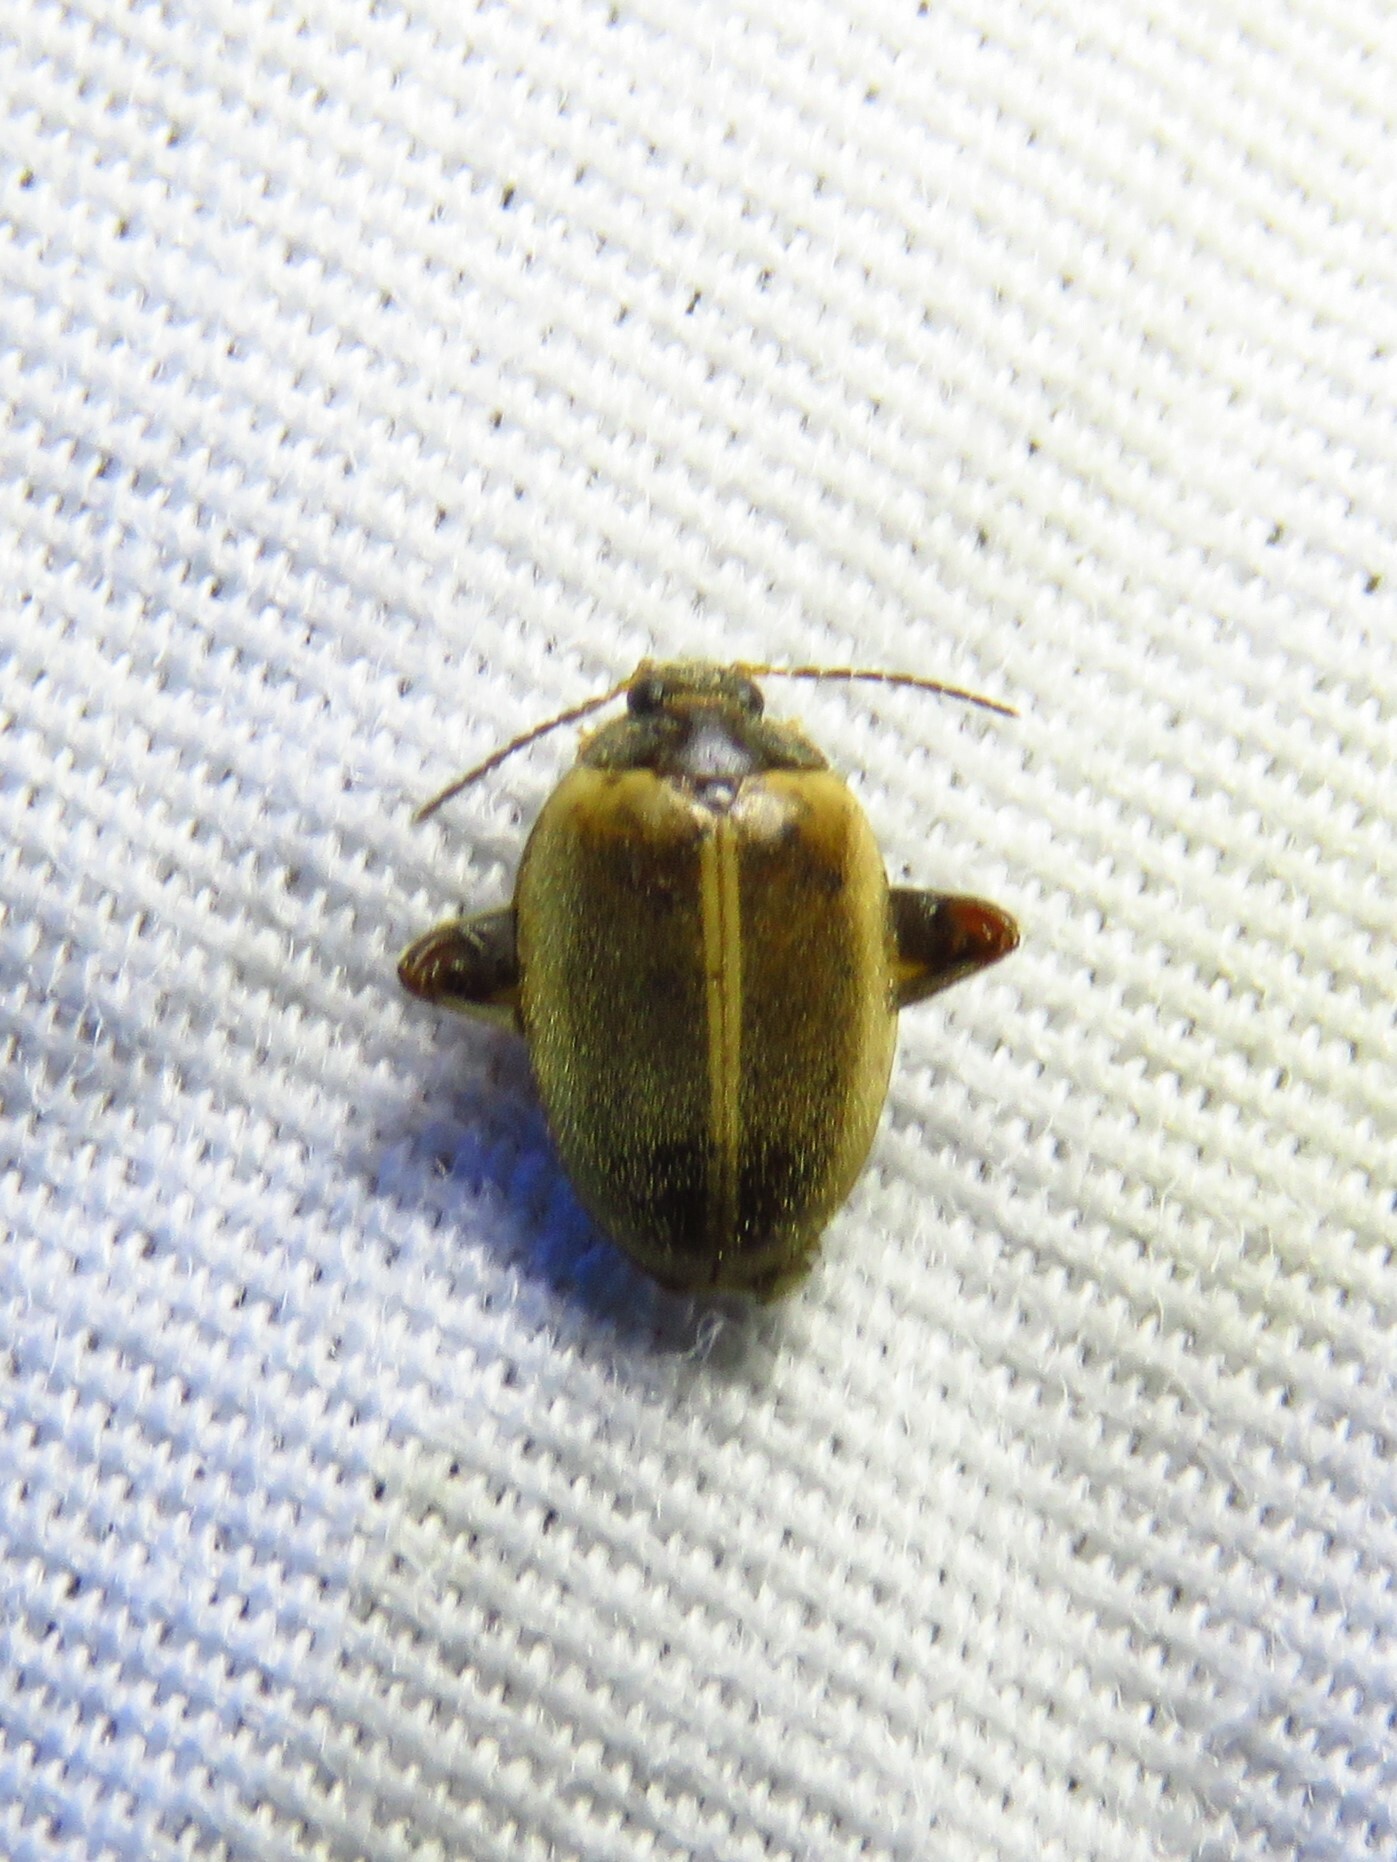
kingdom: Animalia
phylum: Arthropoda
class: Insecta
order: Coleoptera
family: Scirtidae
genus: Ora
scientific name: Ora discoidea
